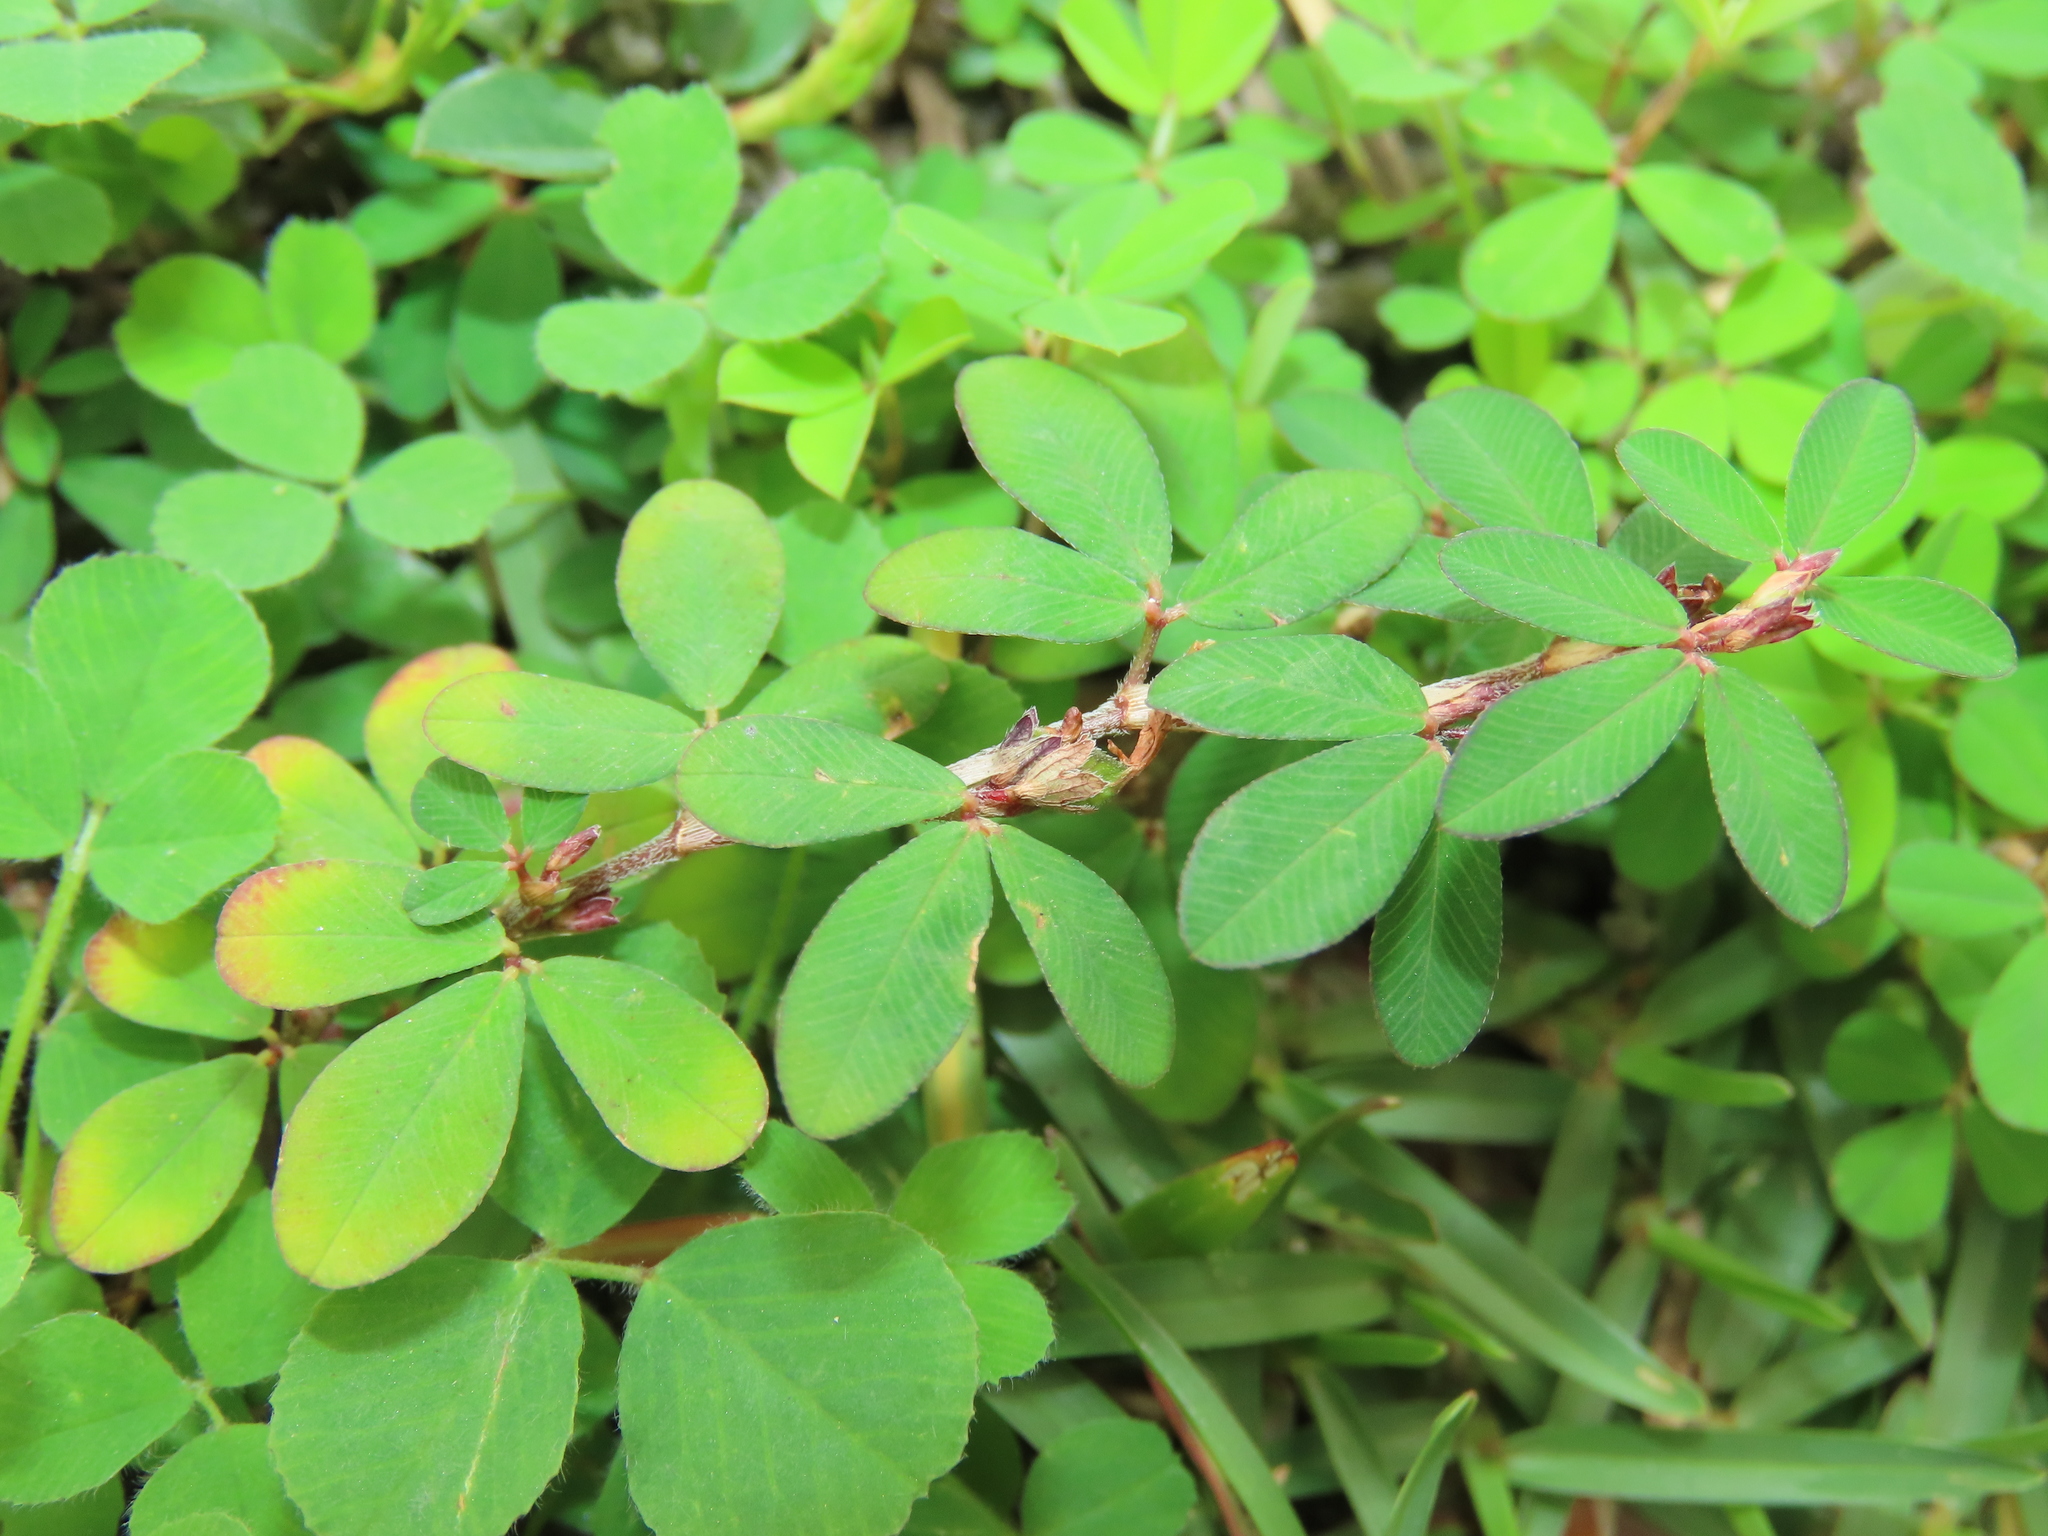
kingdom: Plantae
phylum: Tracheophyta
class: Magnoliopsida
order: Fabales
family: Fabaceae
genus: Kummerowia
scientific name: Kummerowia striata
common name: Japanese clover
